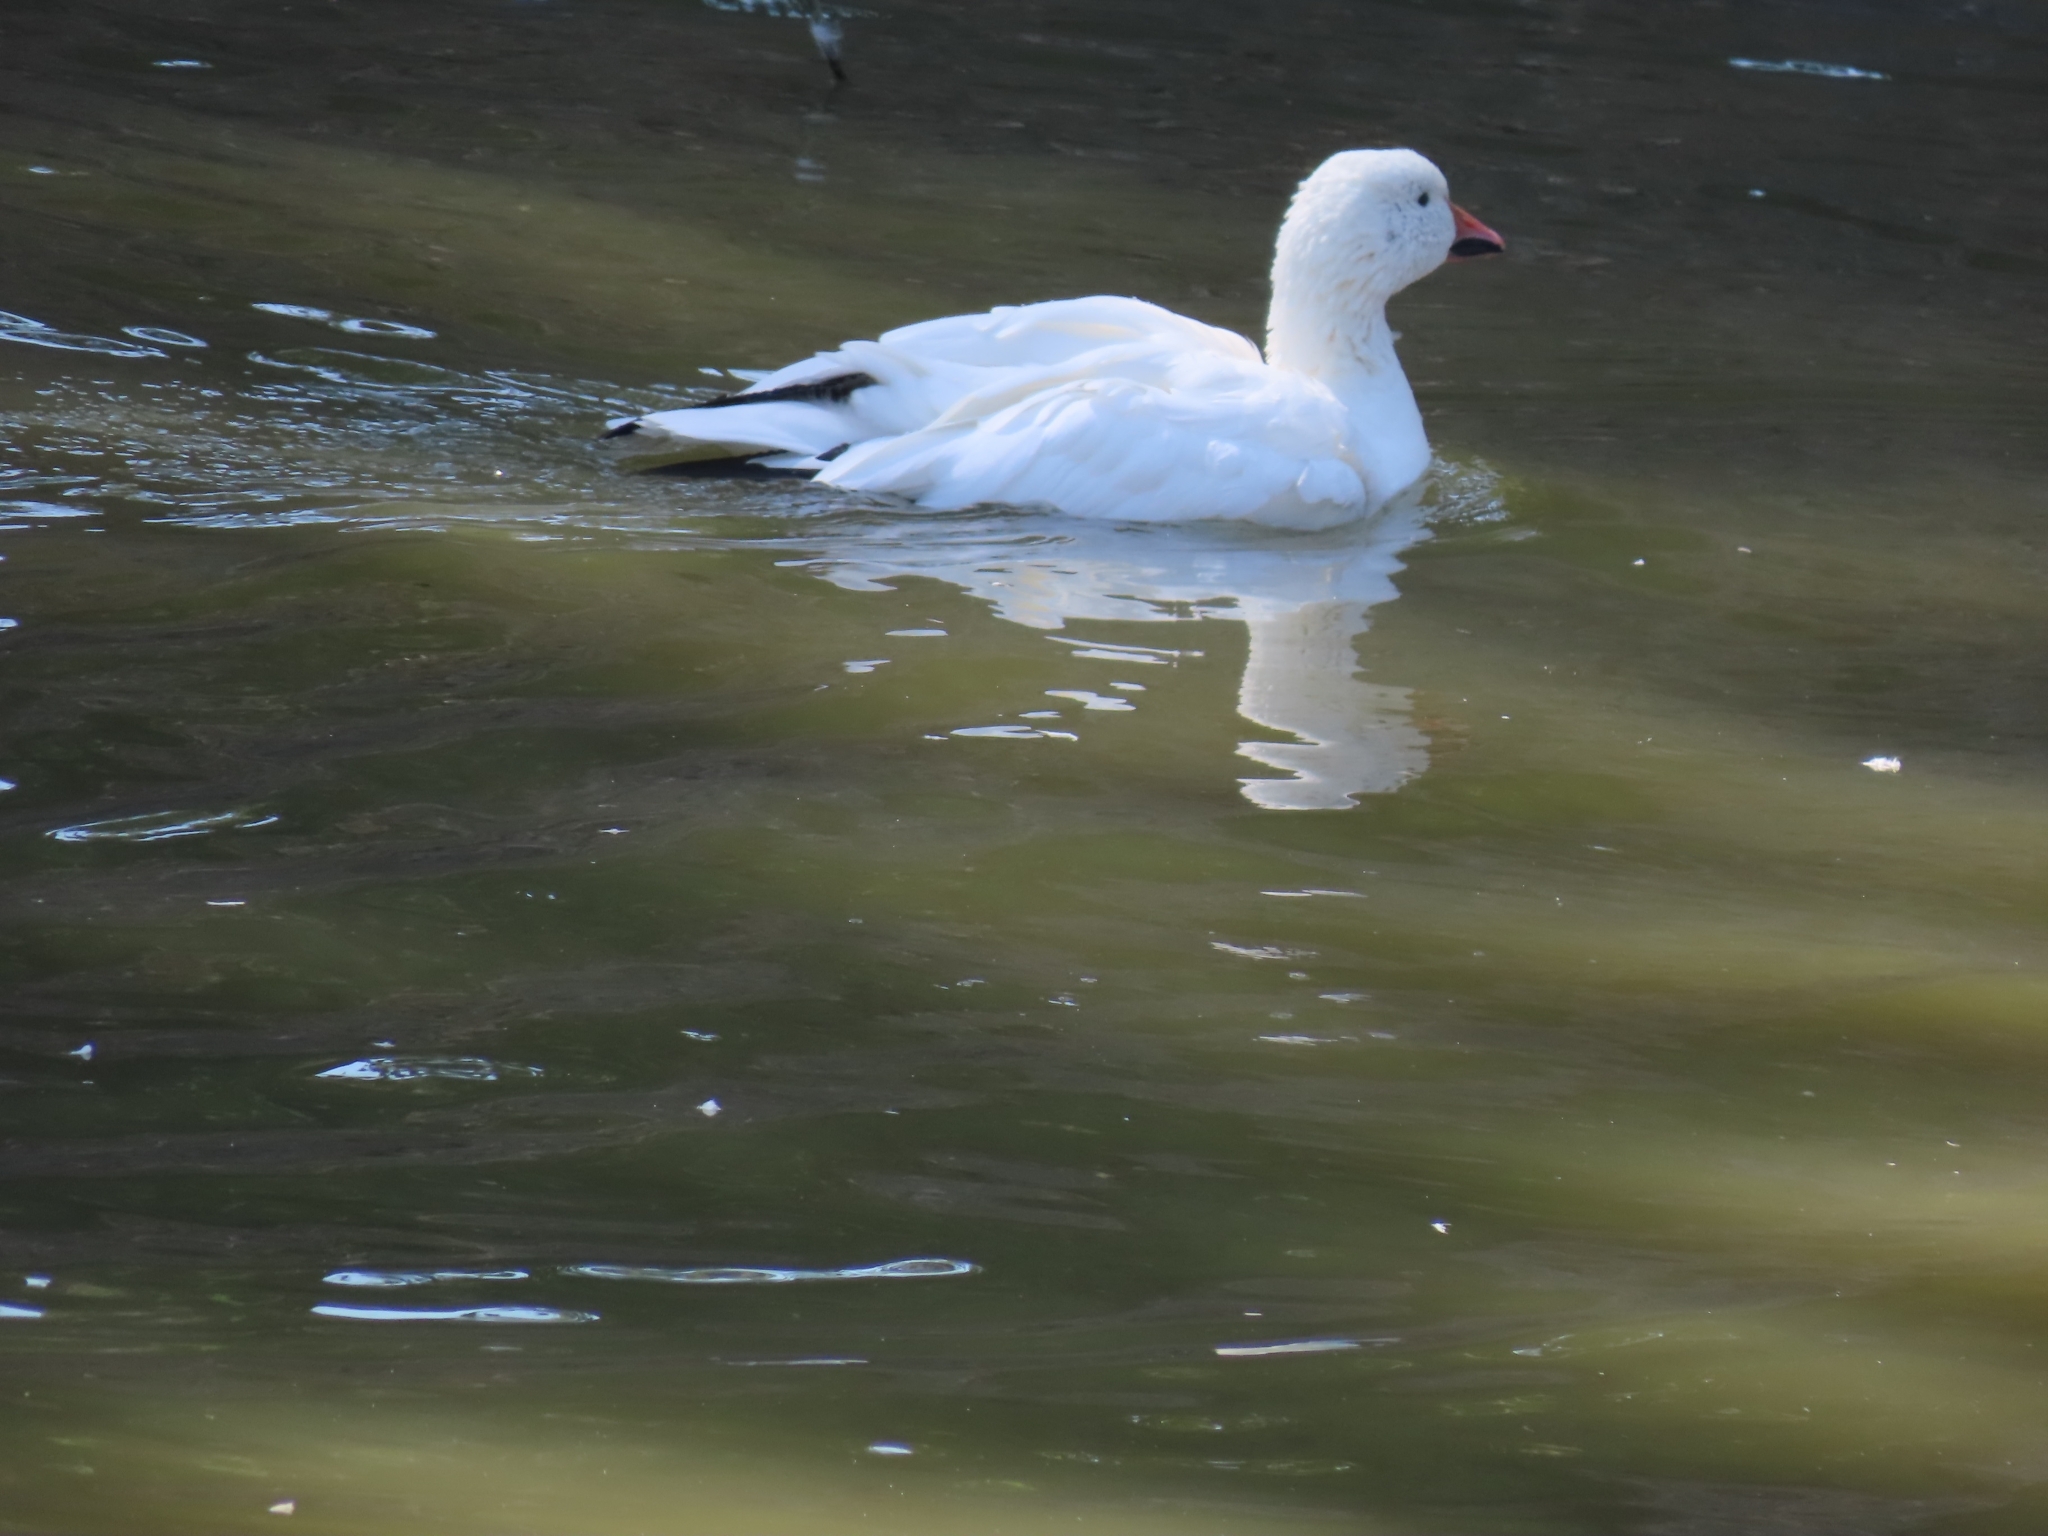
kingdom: Animalia
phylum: Chordata
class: Aves
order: Anseriformes
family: Anatidae
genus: Anser
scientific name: Anser caerulescens
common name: Snow goose
